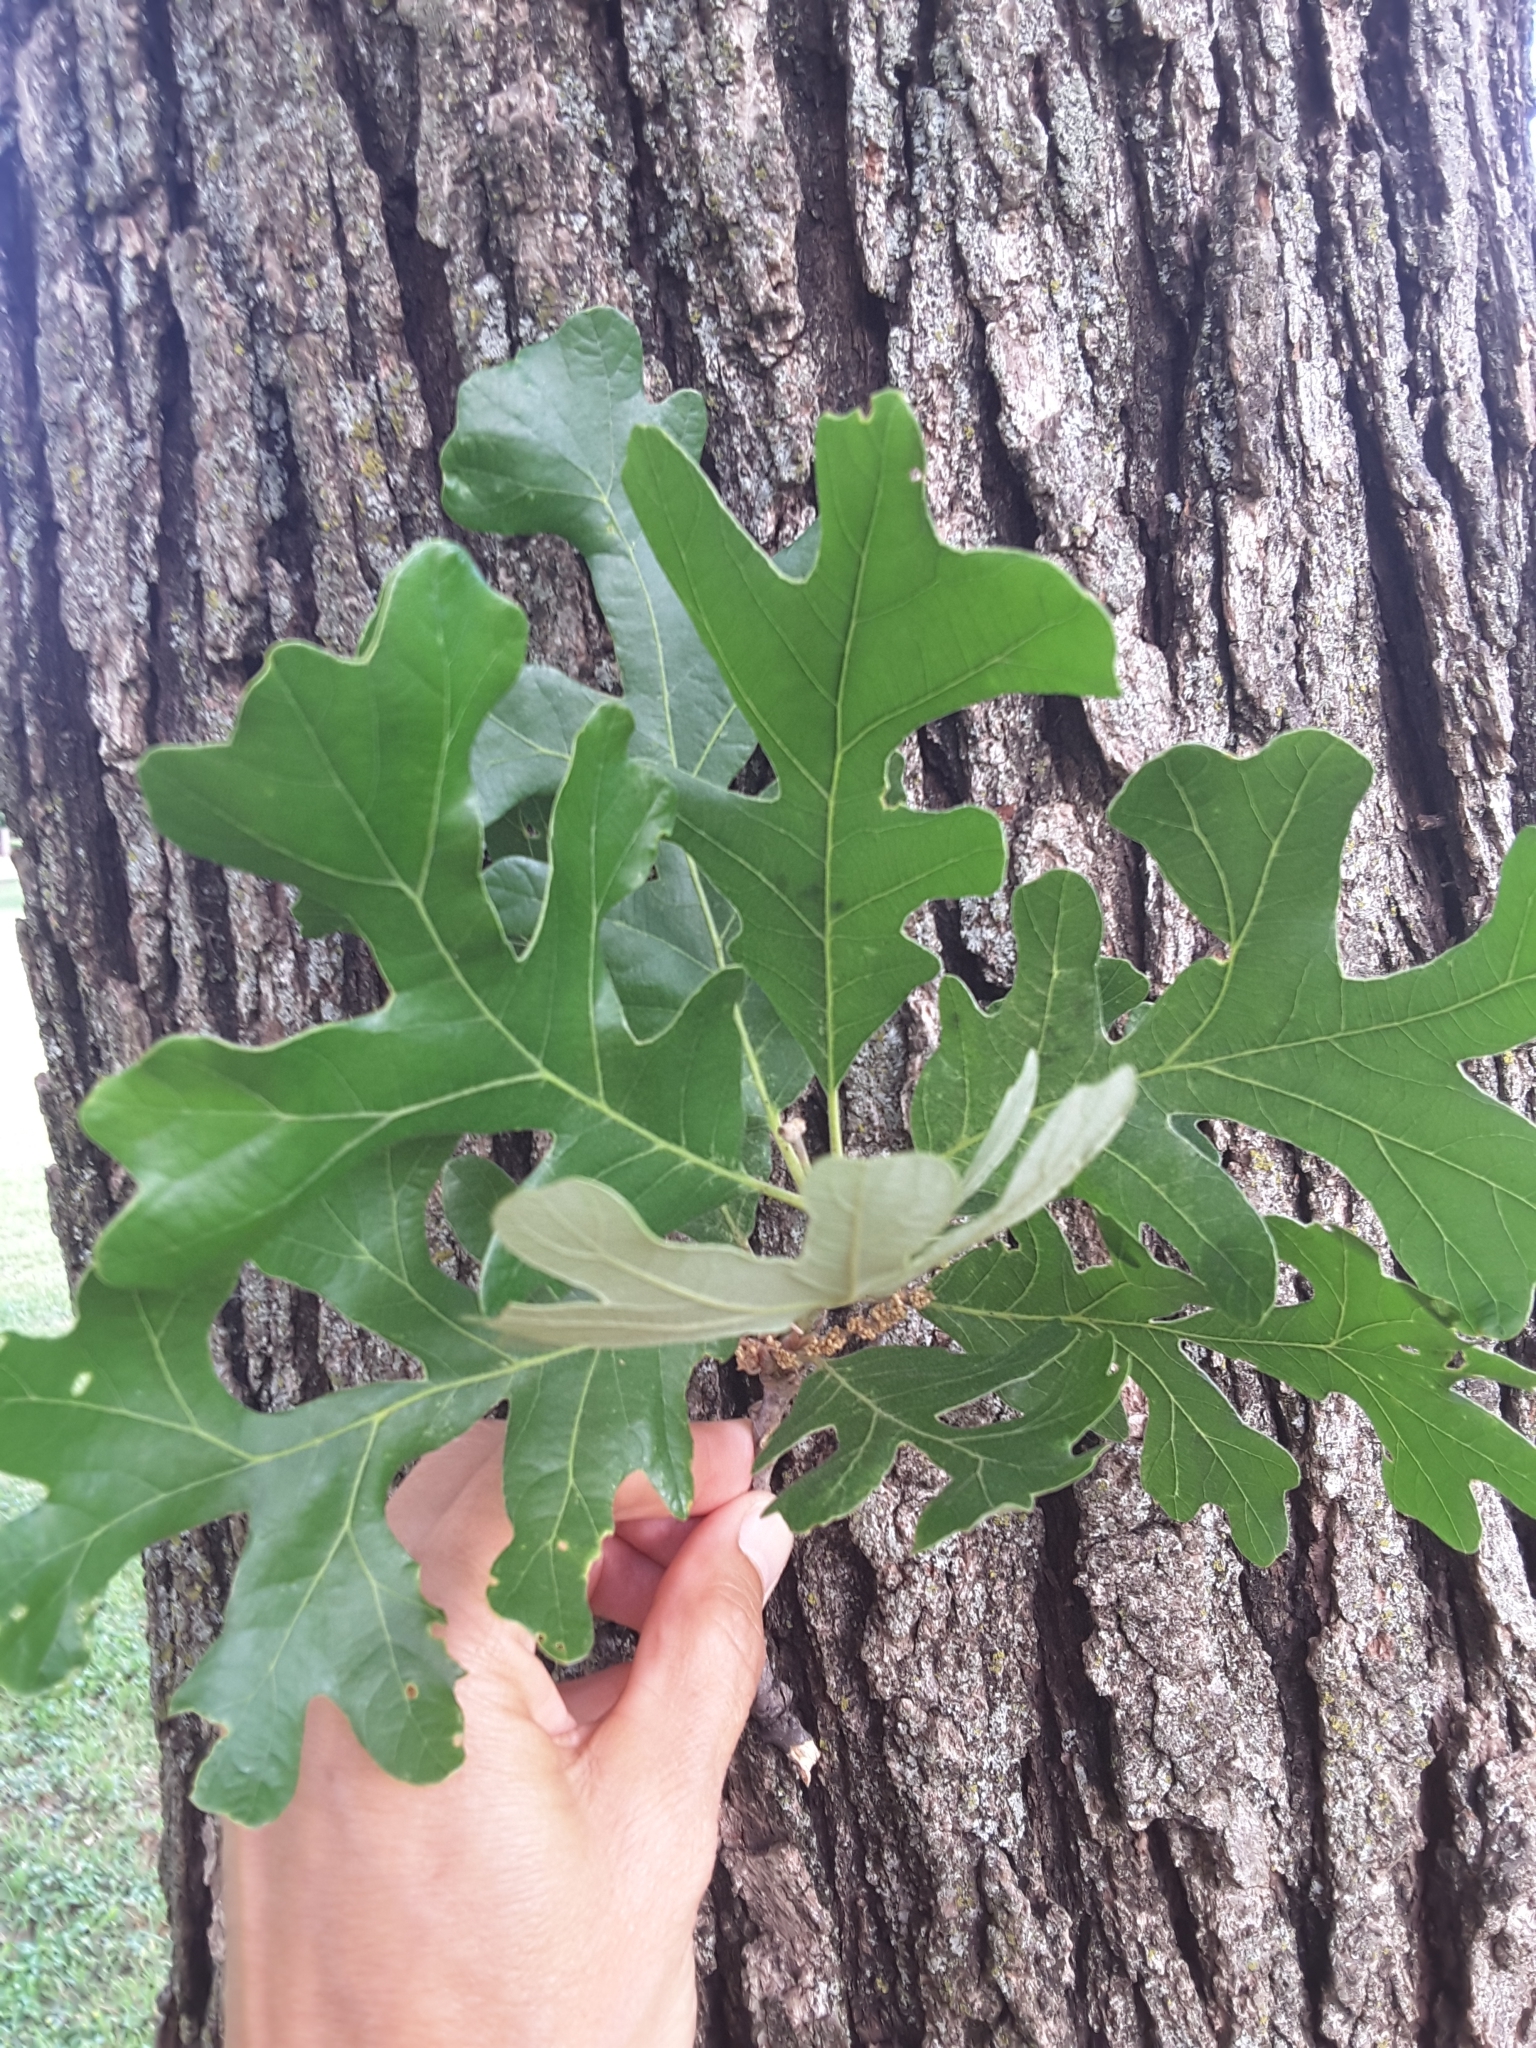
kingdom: Plantae
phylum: Tracheophyta
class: Magnoliopsida
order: Fagales
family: Fagaceae
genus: Quercus
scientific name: Quercus stellata
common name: Post oak
